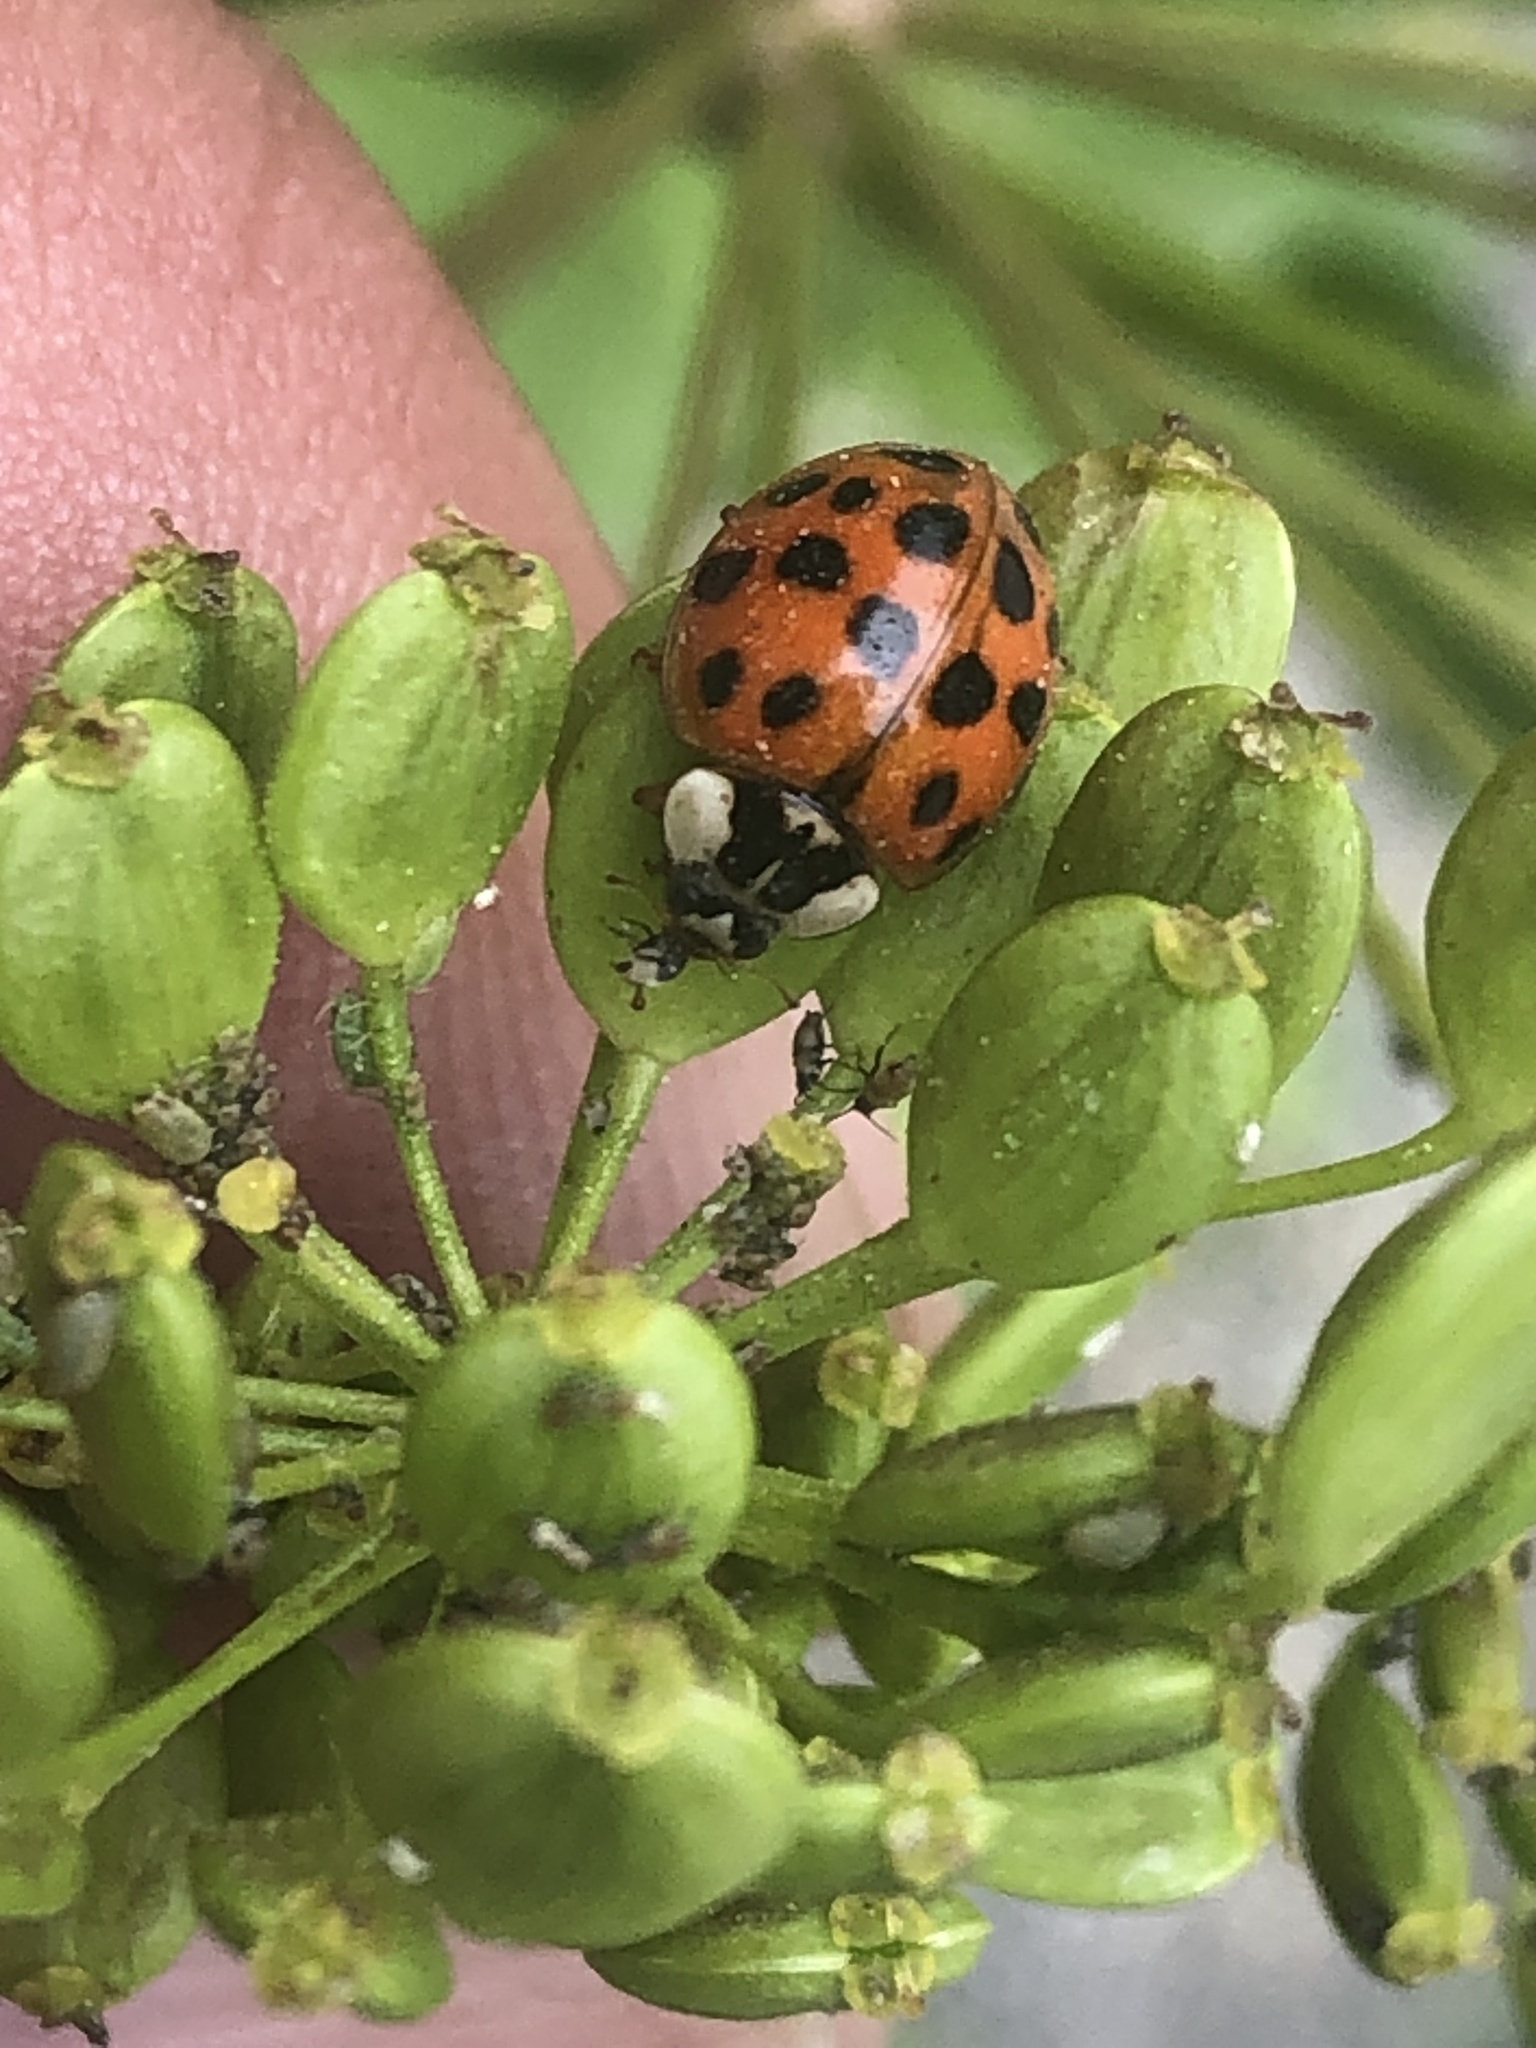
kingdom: Animalia
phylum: Arthropoda
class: Insecta
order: Coleoptera
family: Coccinellidae
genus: Harmonia
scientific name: Harmonia axyridis
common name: Harlequin ladybird
